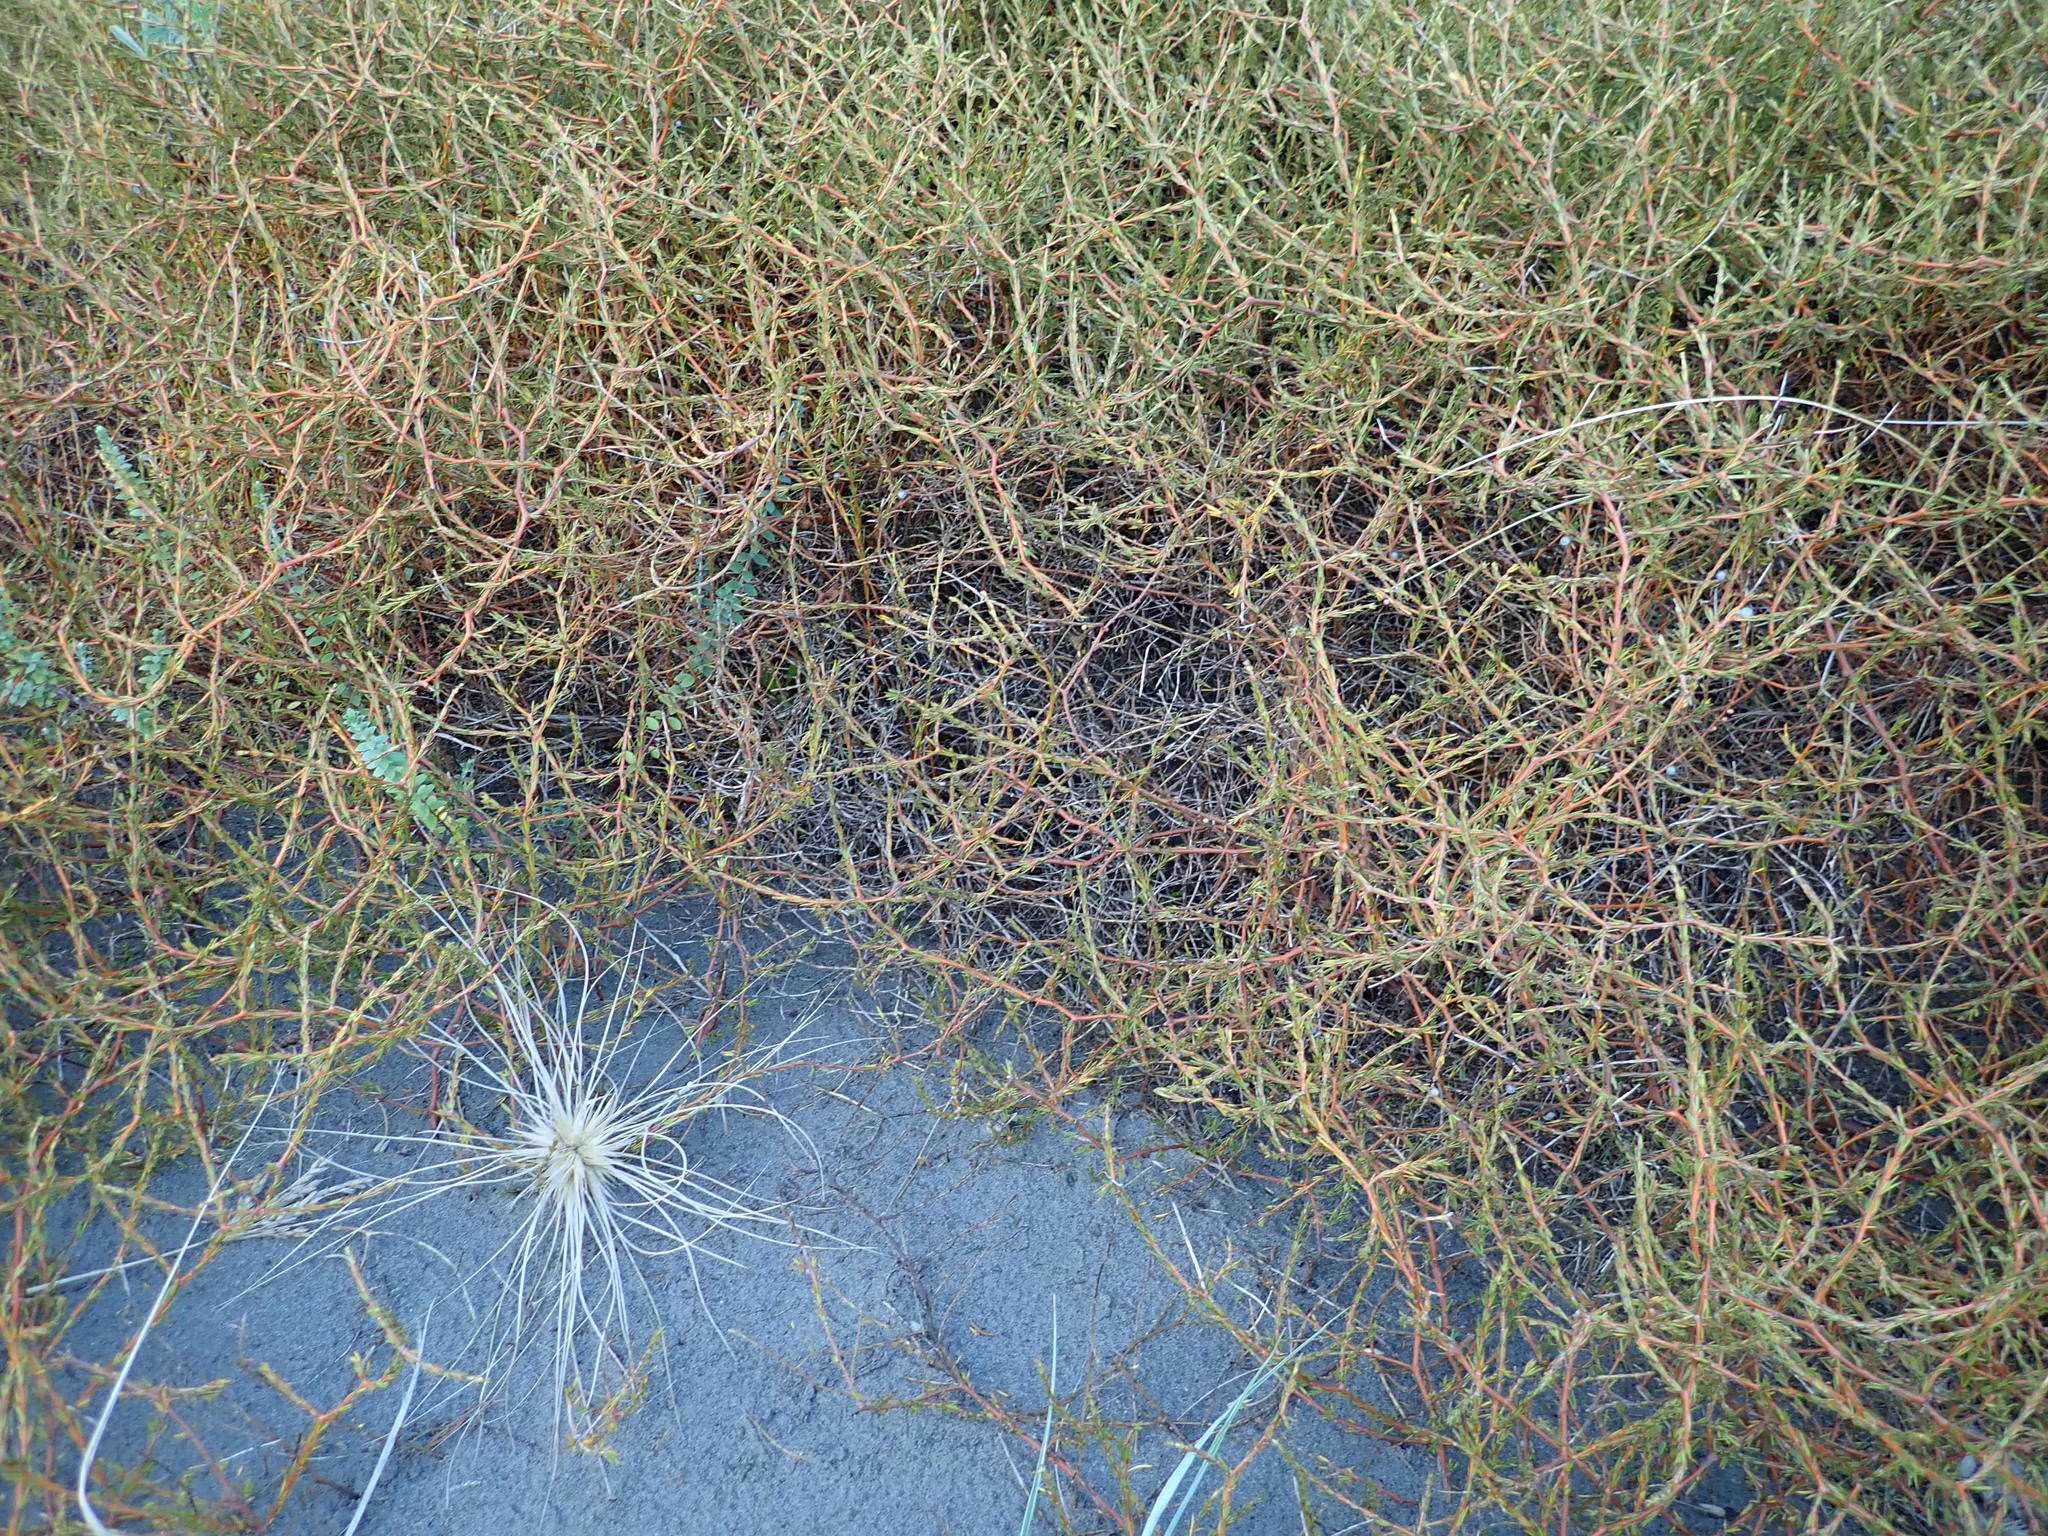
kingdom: Plantae
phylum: Tracheophyta
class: Magnoliopsida
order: Gentianales
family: Rubiaceae
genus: Coprosma
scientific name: Coprosma acerosa
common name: Sand coprosma
